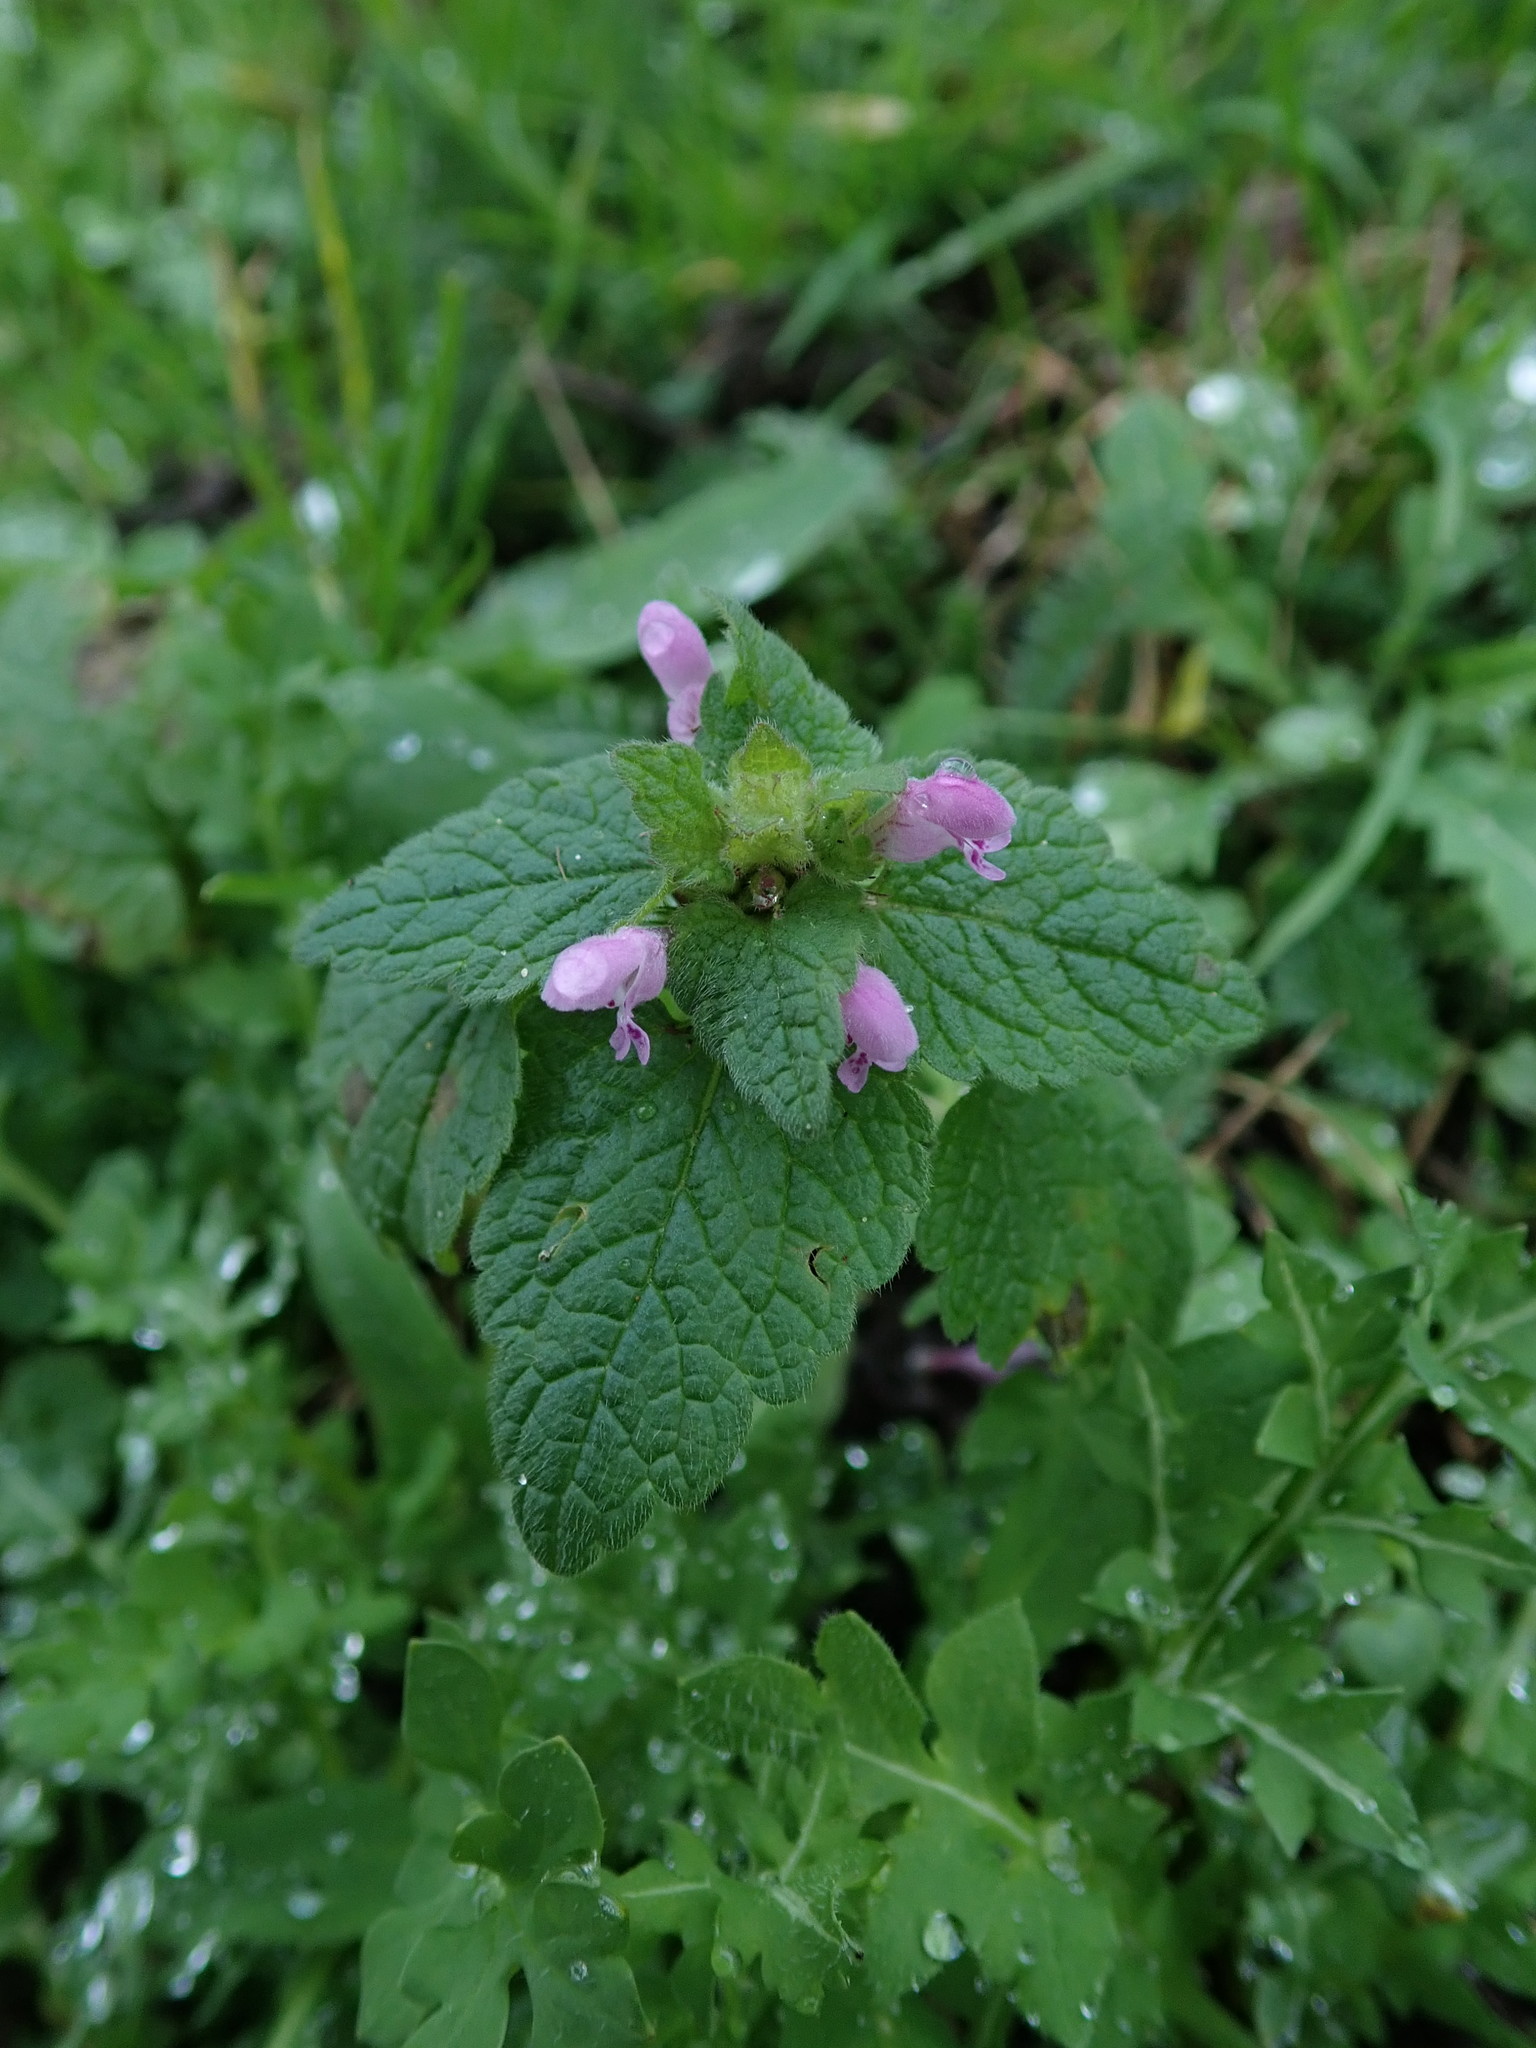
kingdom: Plantae
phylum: Tracheophyta
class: Magnoliopsida
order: Lamiales
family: Lamiaceae
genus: Lamium
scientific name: Lamium purpureum
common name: Red dead-nettle
